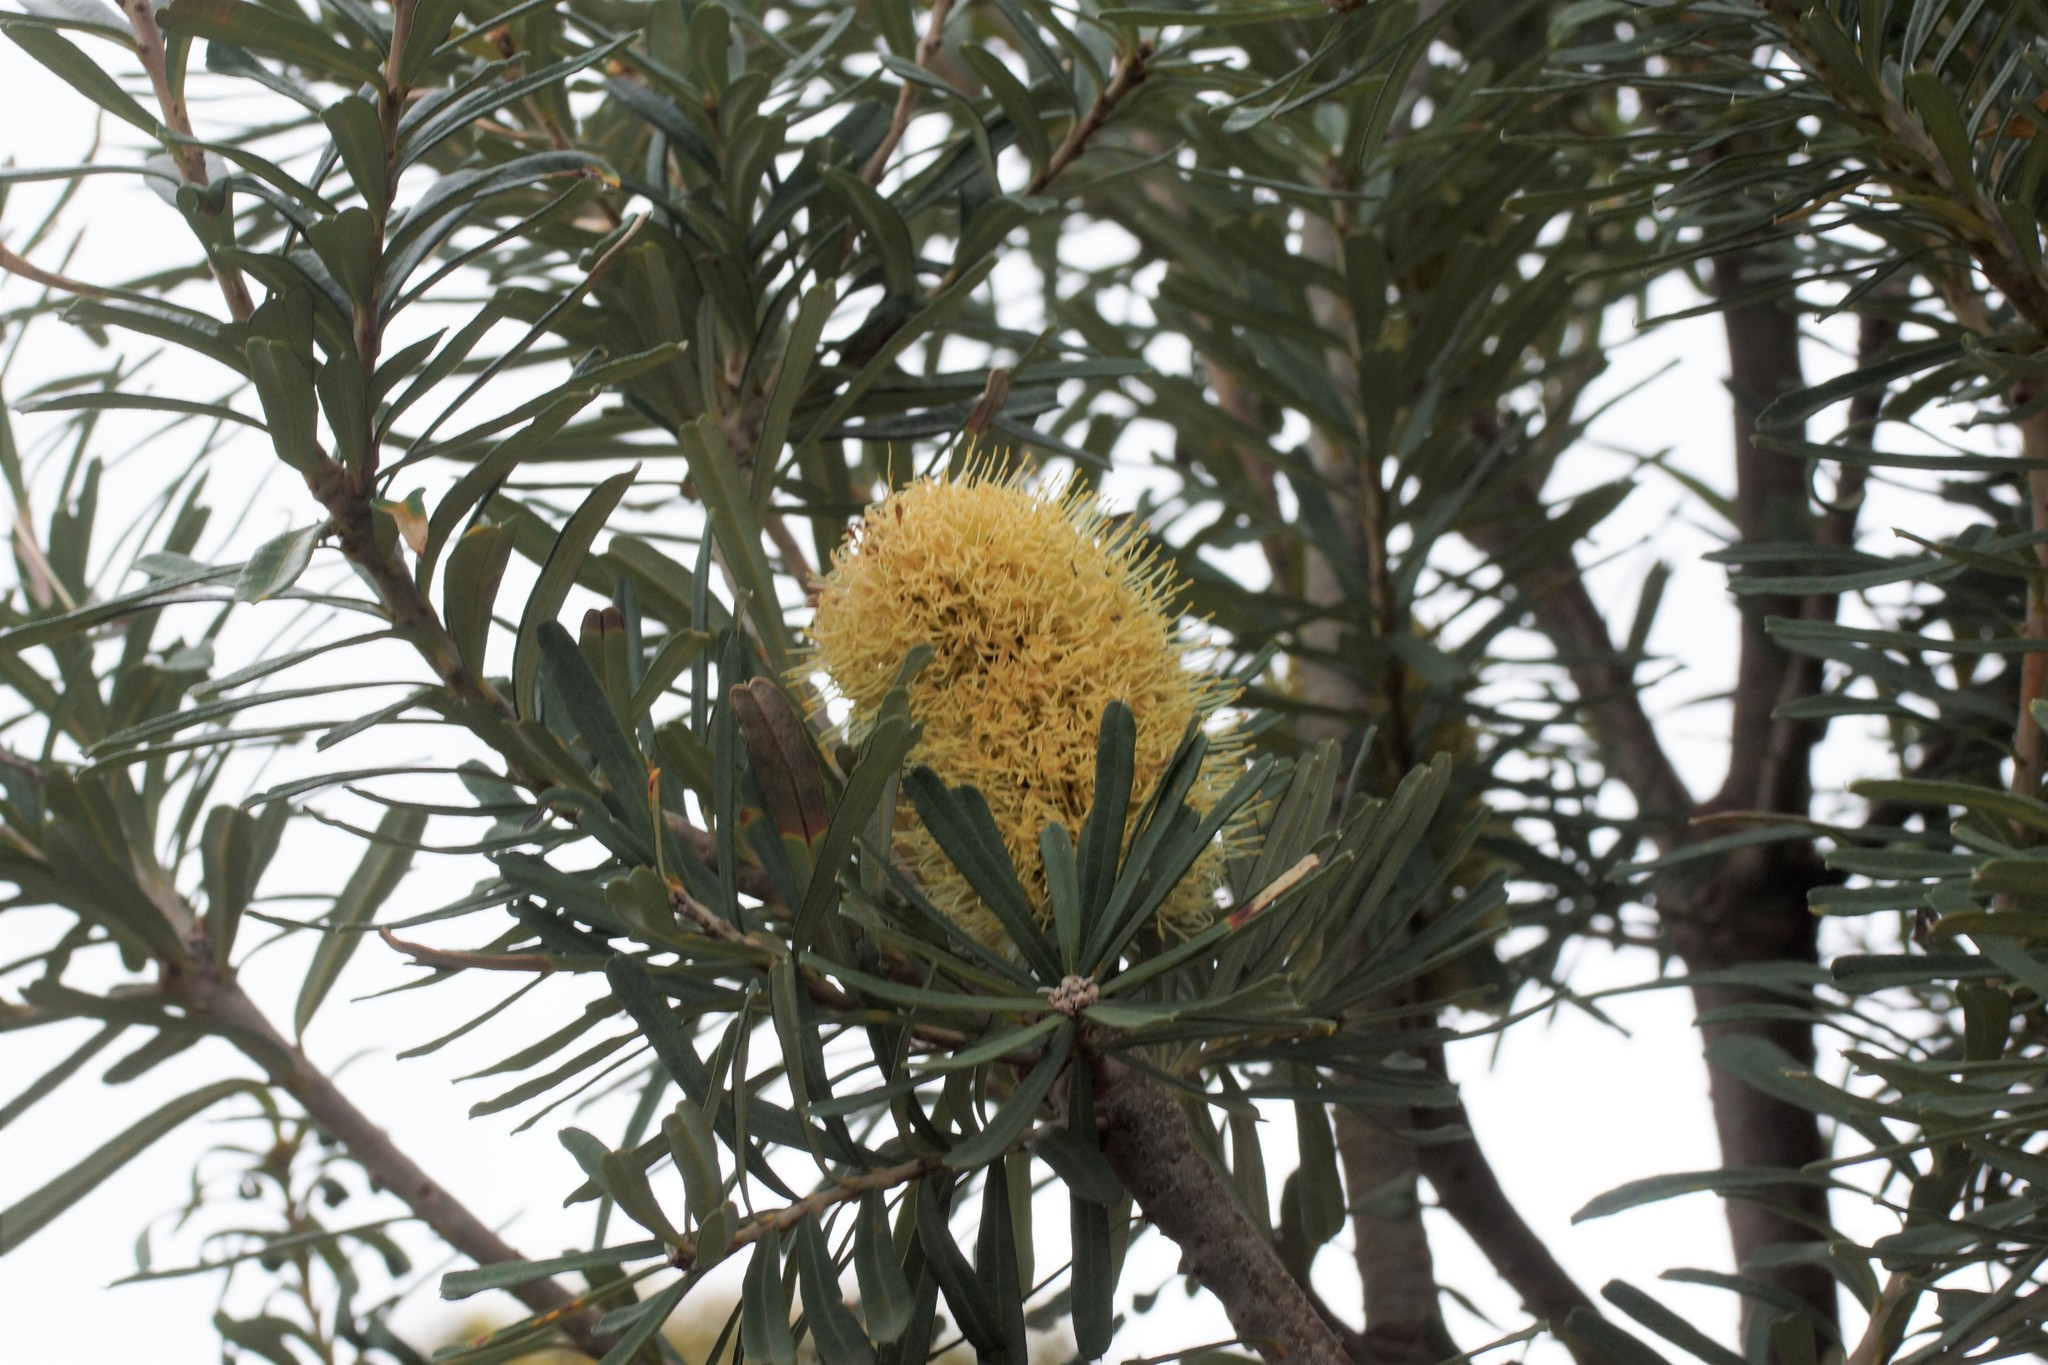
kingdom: Plantae
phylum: Tracheophyta
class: Magnoliopsida
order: Proteales
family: Proteaceae
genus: Banksia
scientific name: Banksia integrifolia
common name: White-honeysuckle
